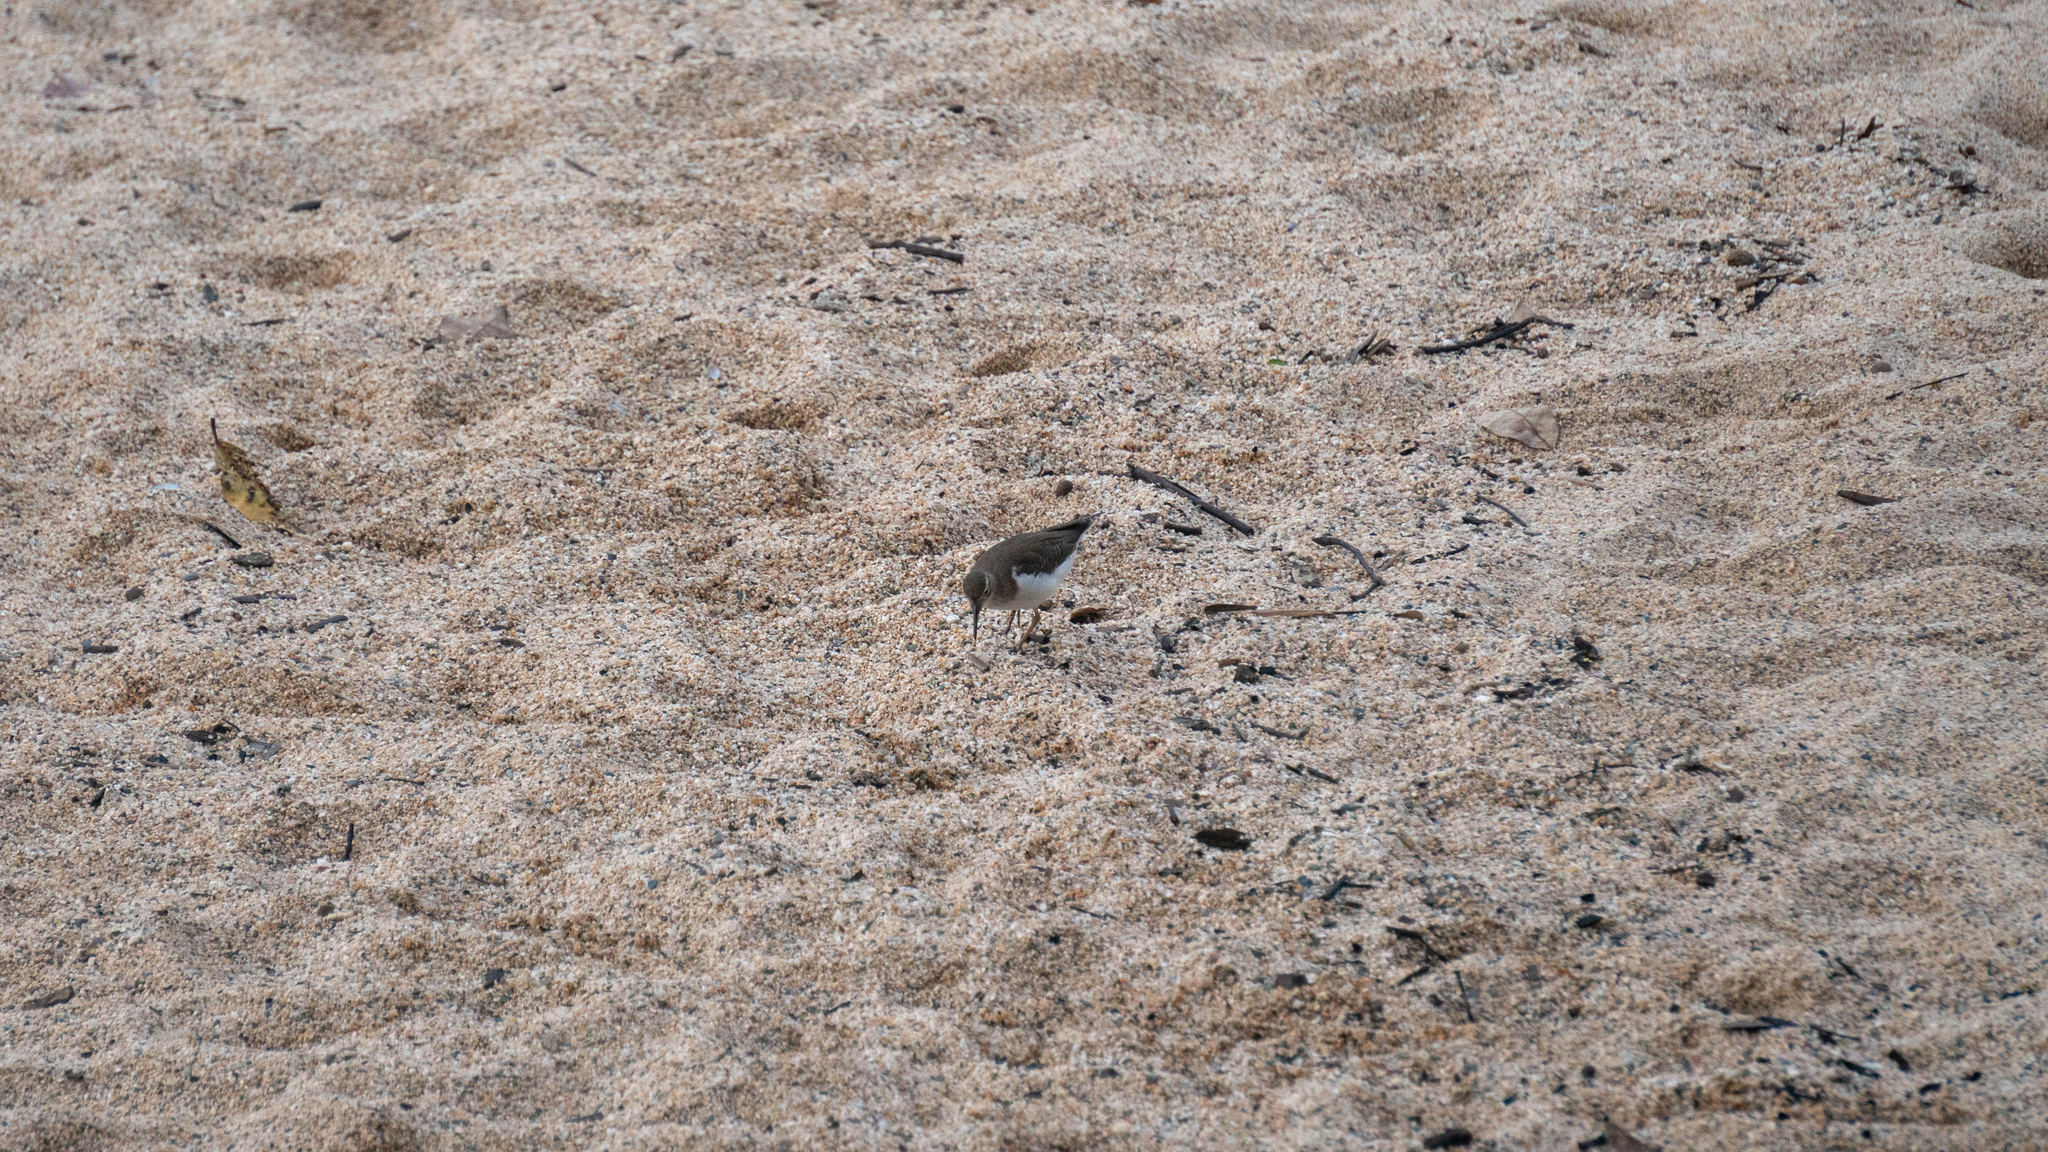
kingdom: Animalia
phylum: Chordata
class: Aves
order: Charadriiformes
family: Scolopacidae
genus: Actitis
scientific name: Actitis macularius
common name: Spotted sandpiper
